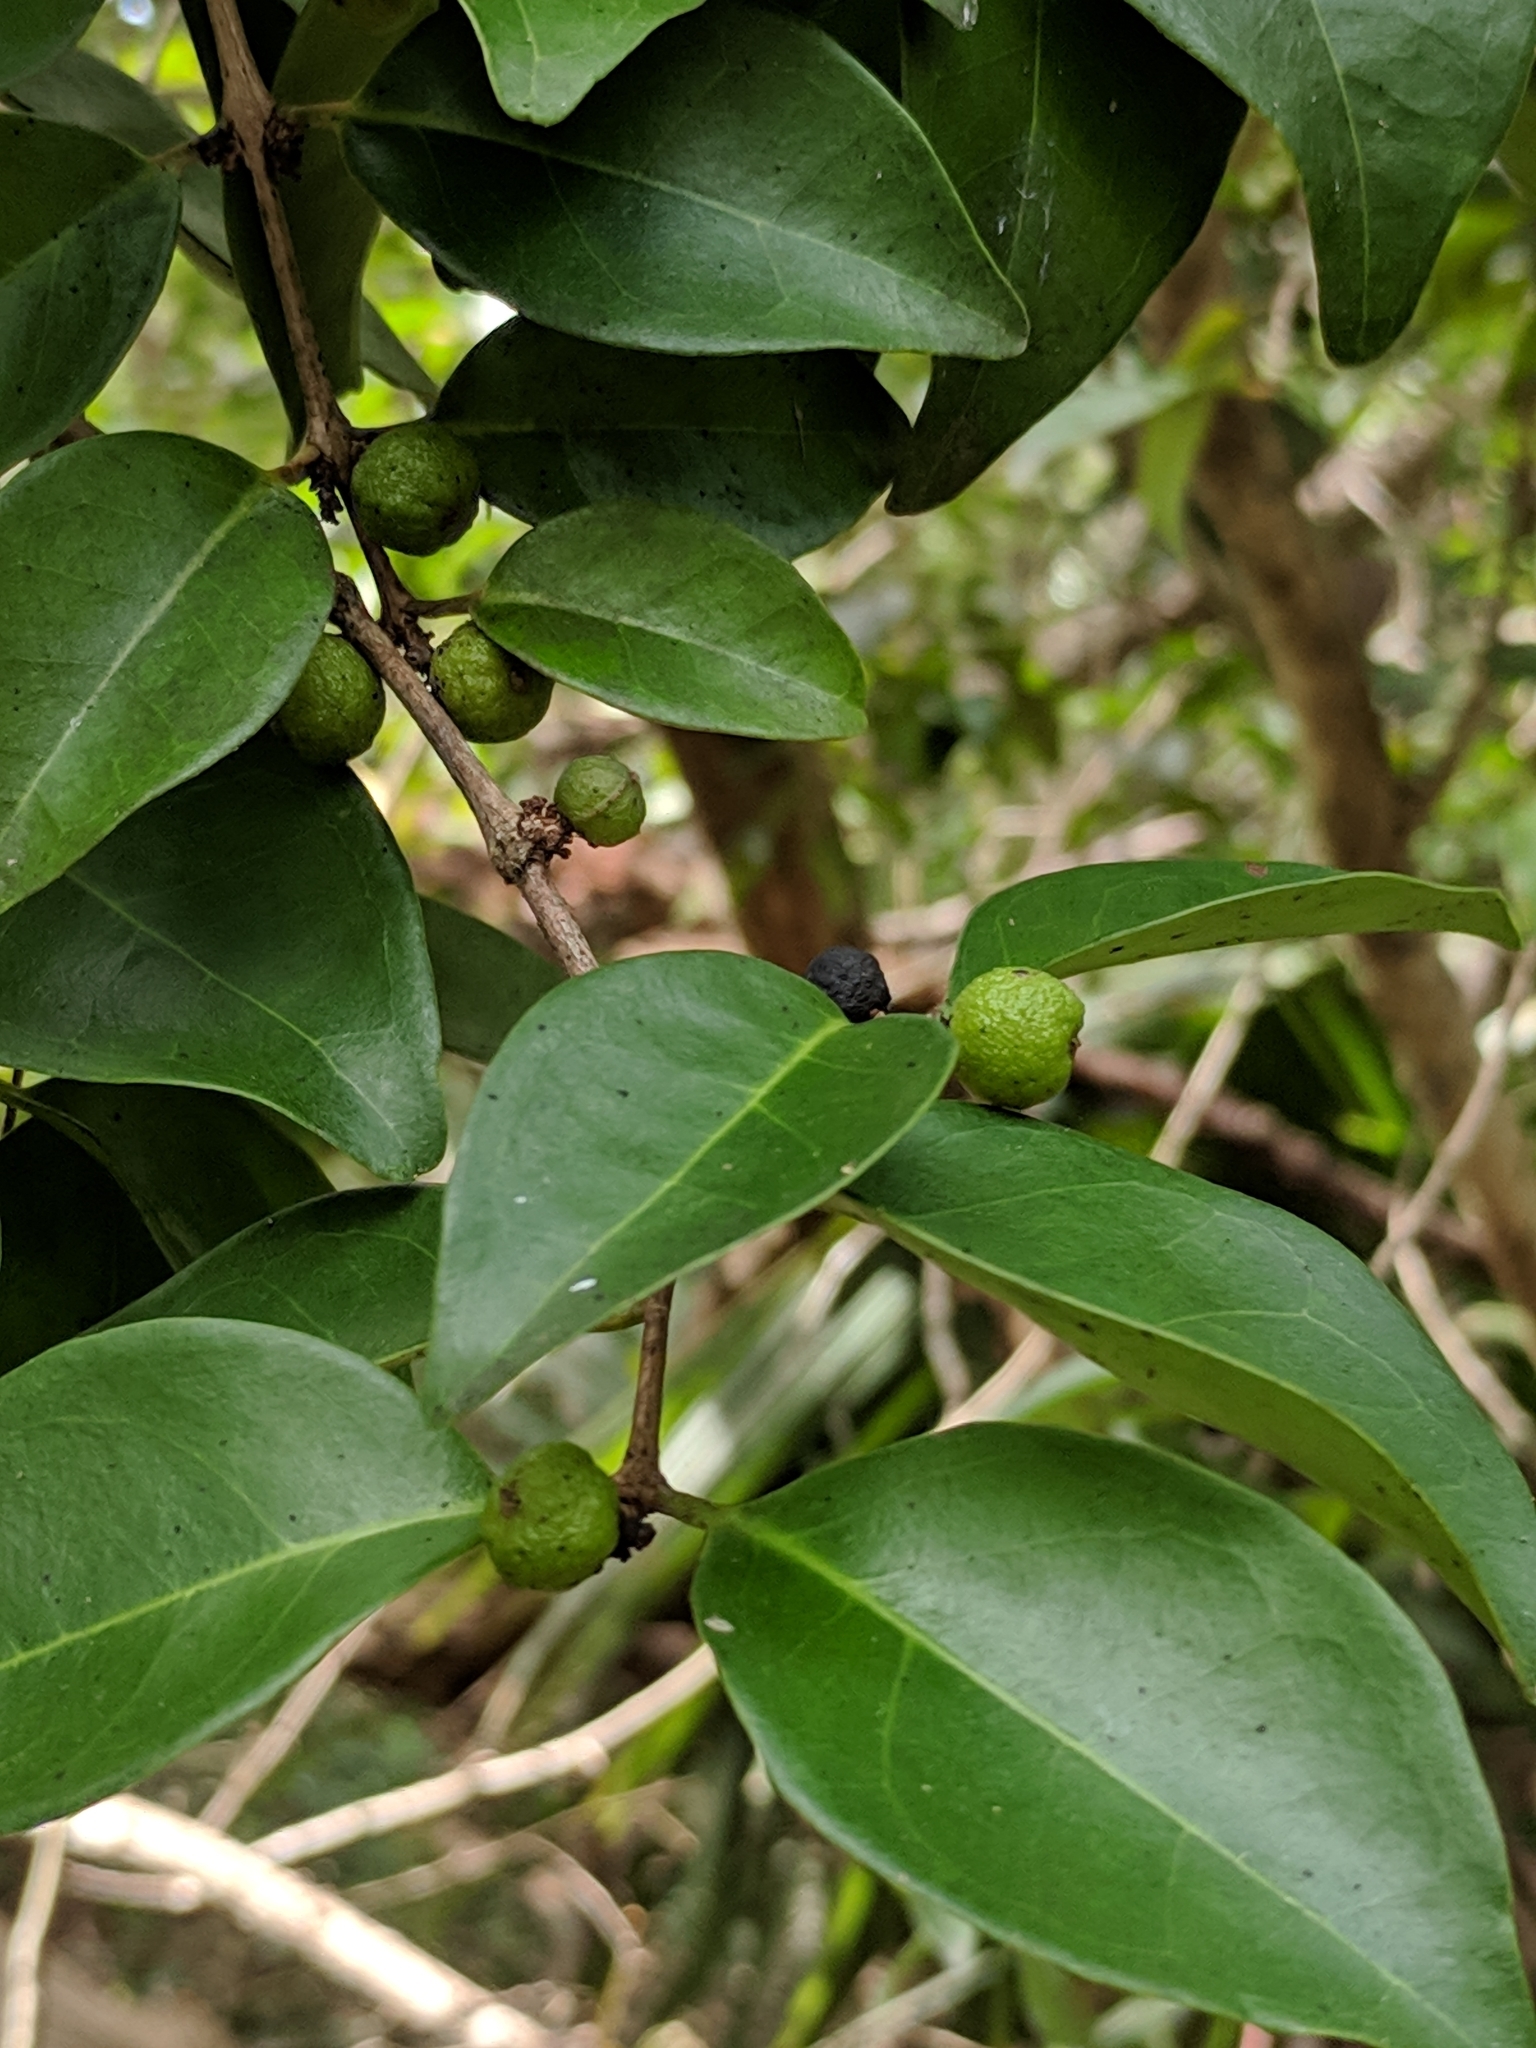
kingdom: Plantae
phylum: Tracheophyta
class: Magnoliopsida
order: Myrtales
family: Myrtaceae
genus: Eugenia
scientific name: Eugenia axillaris
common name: Choaky berry
